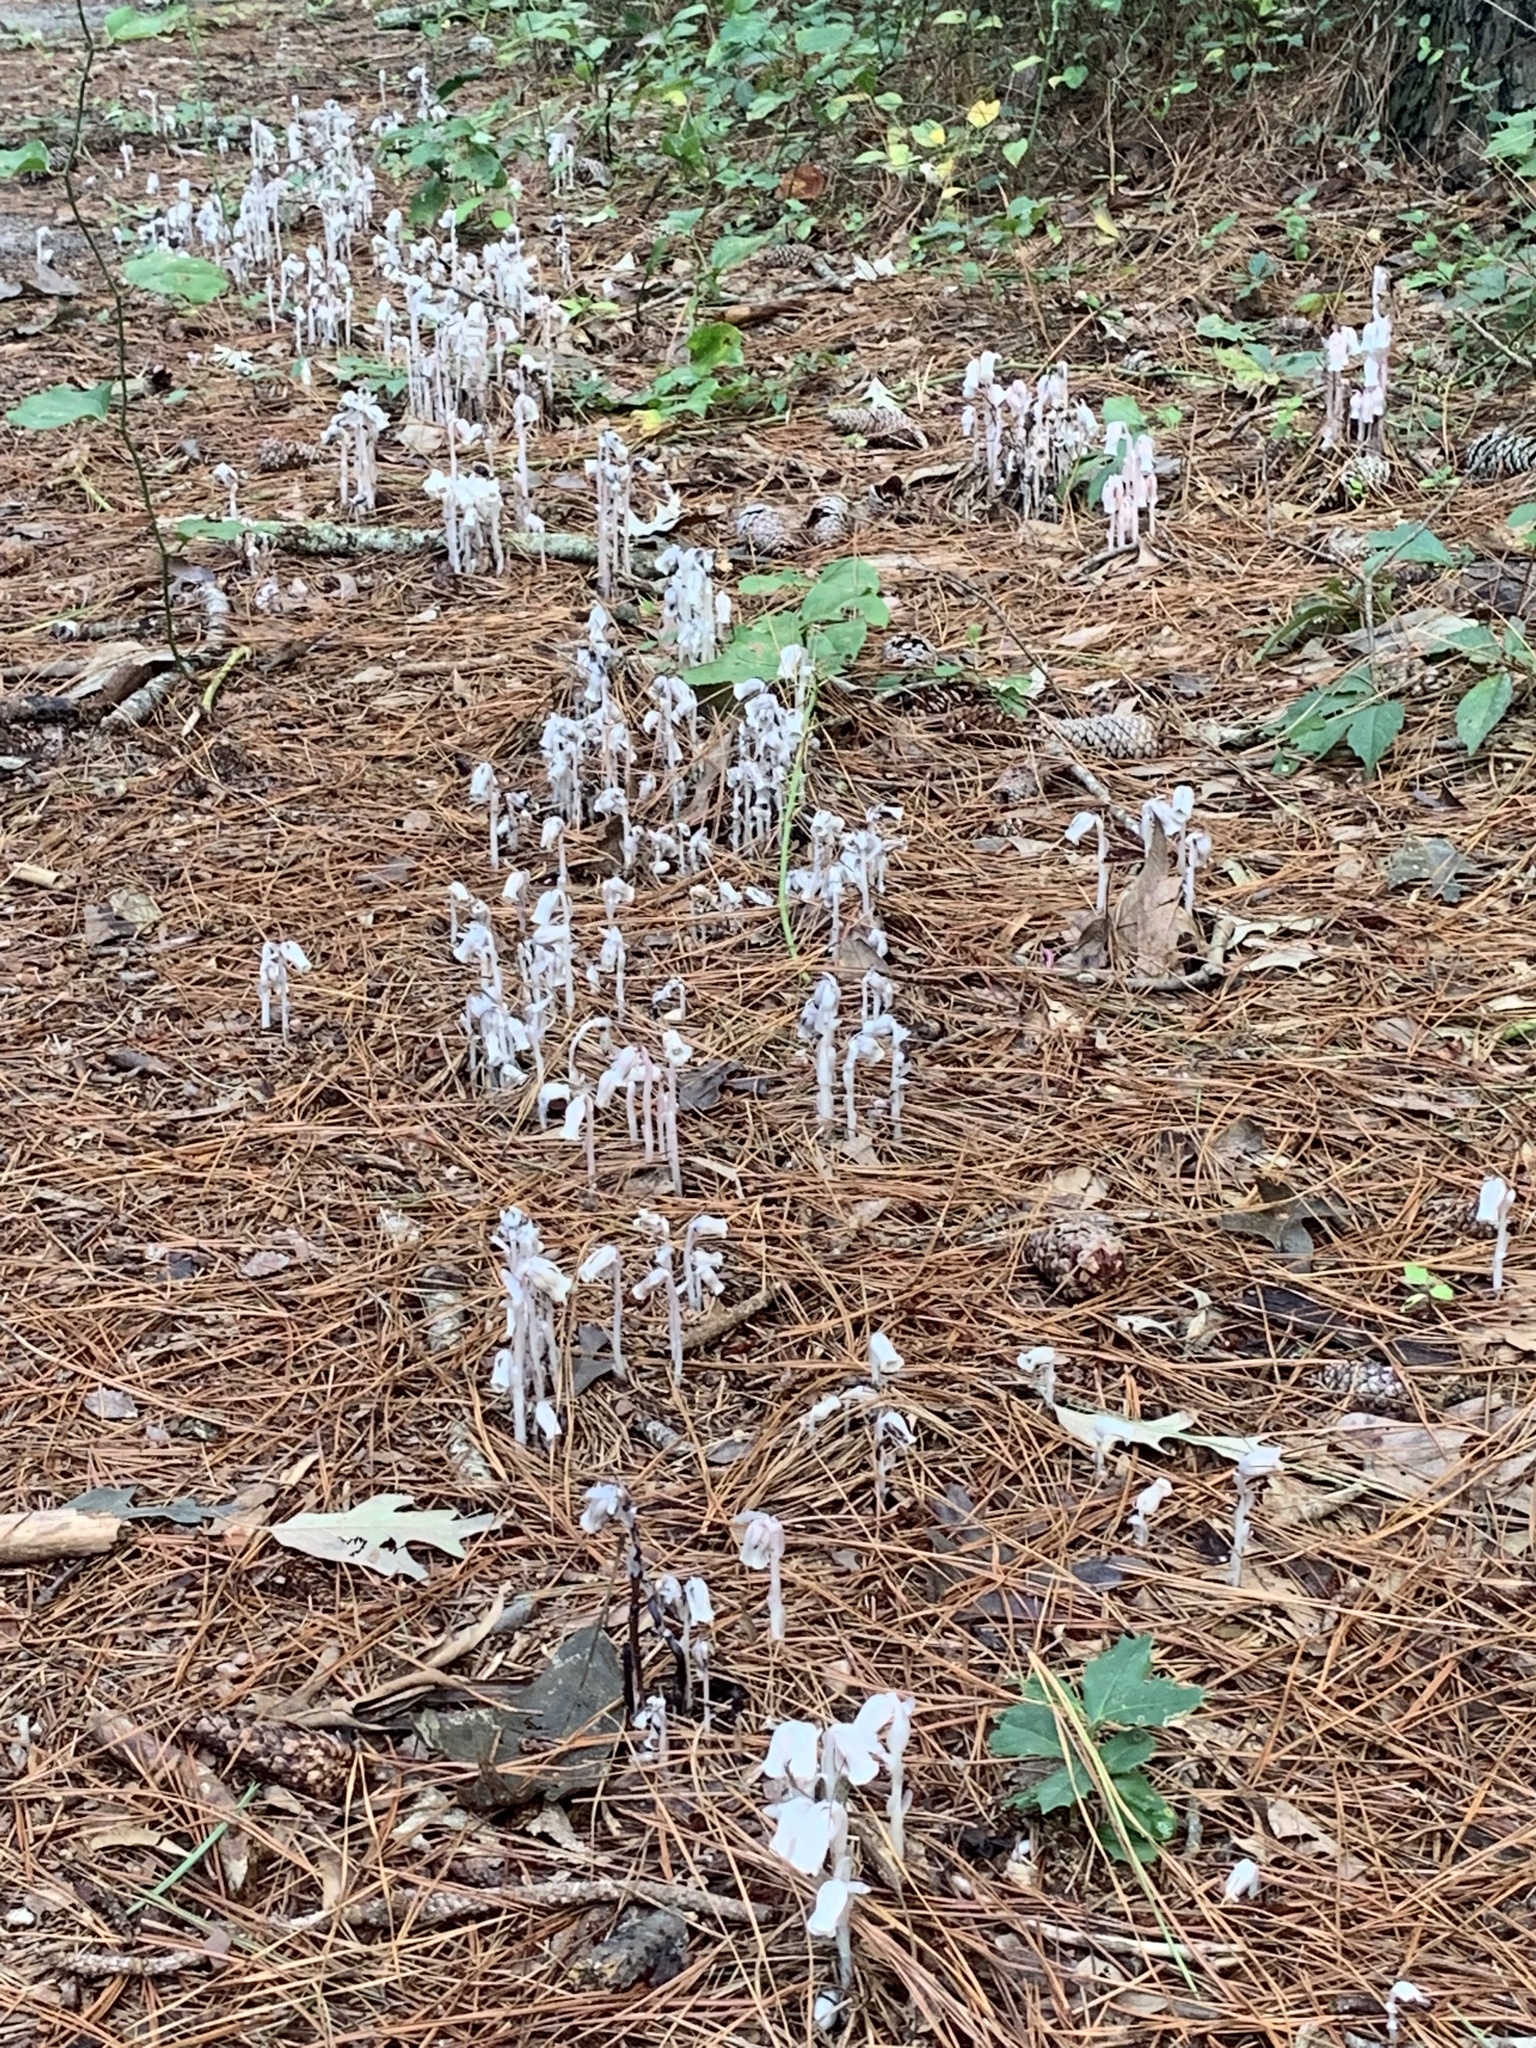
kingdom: Plantae
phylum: Tracheophyta
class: Magnoliopsida
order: Ericales
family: Ericaceae
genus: Monotropa
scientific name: Monotropa uniflora
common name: Convulsion root
